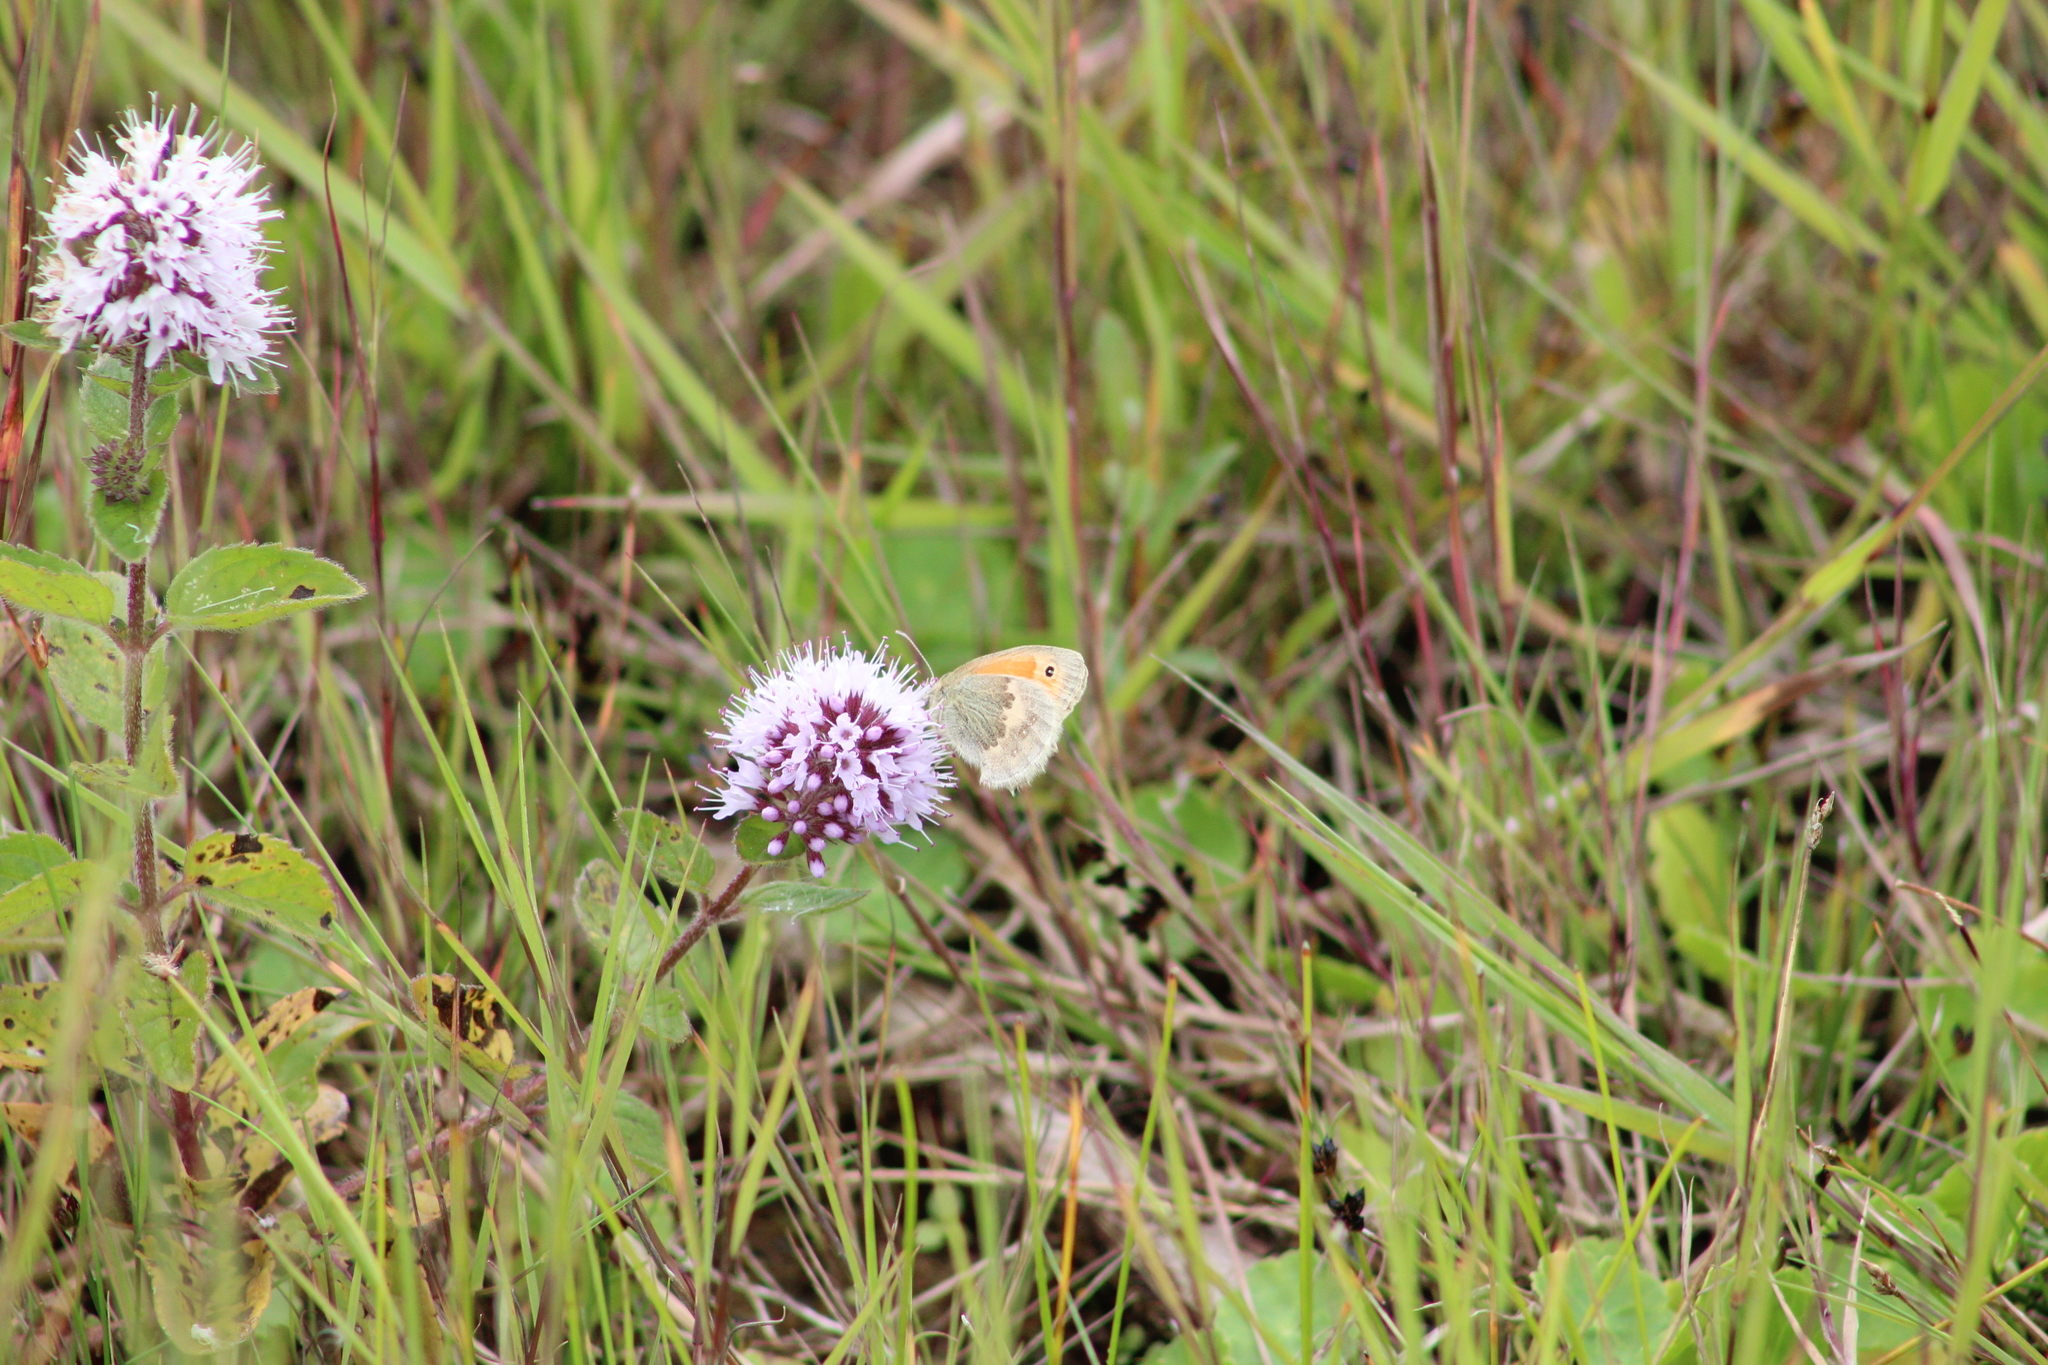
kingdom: Animalia
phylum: Arthropoda
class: Insecta
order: Lepidoptera
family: Nymphalidae
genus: Coenonympha
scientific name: Coenonympha pamphilus
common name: Small heath
